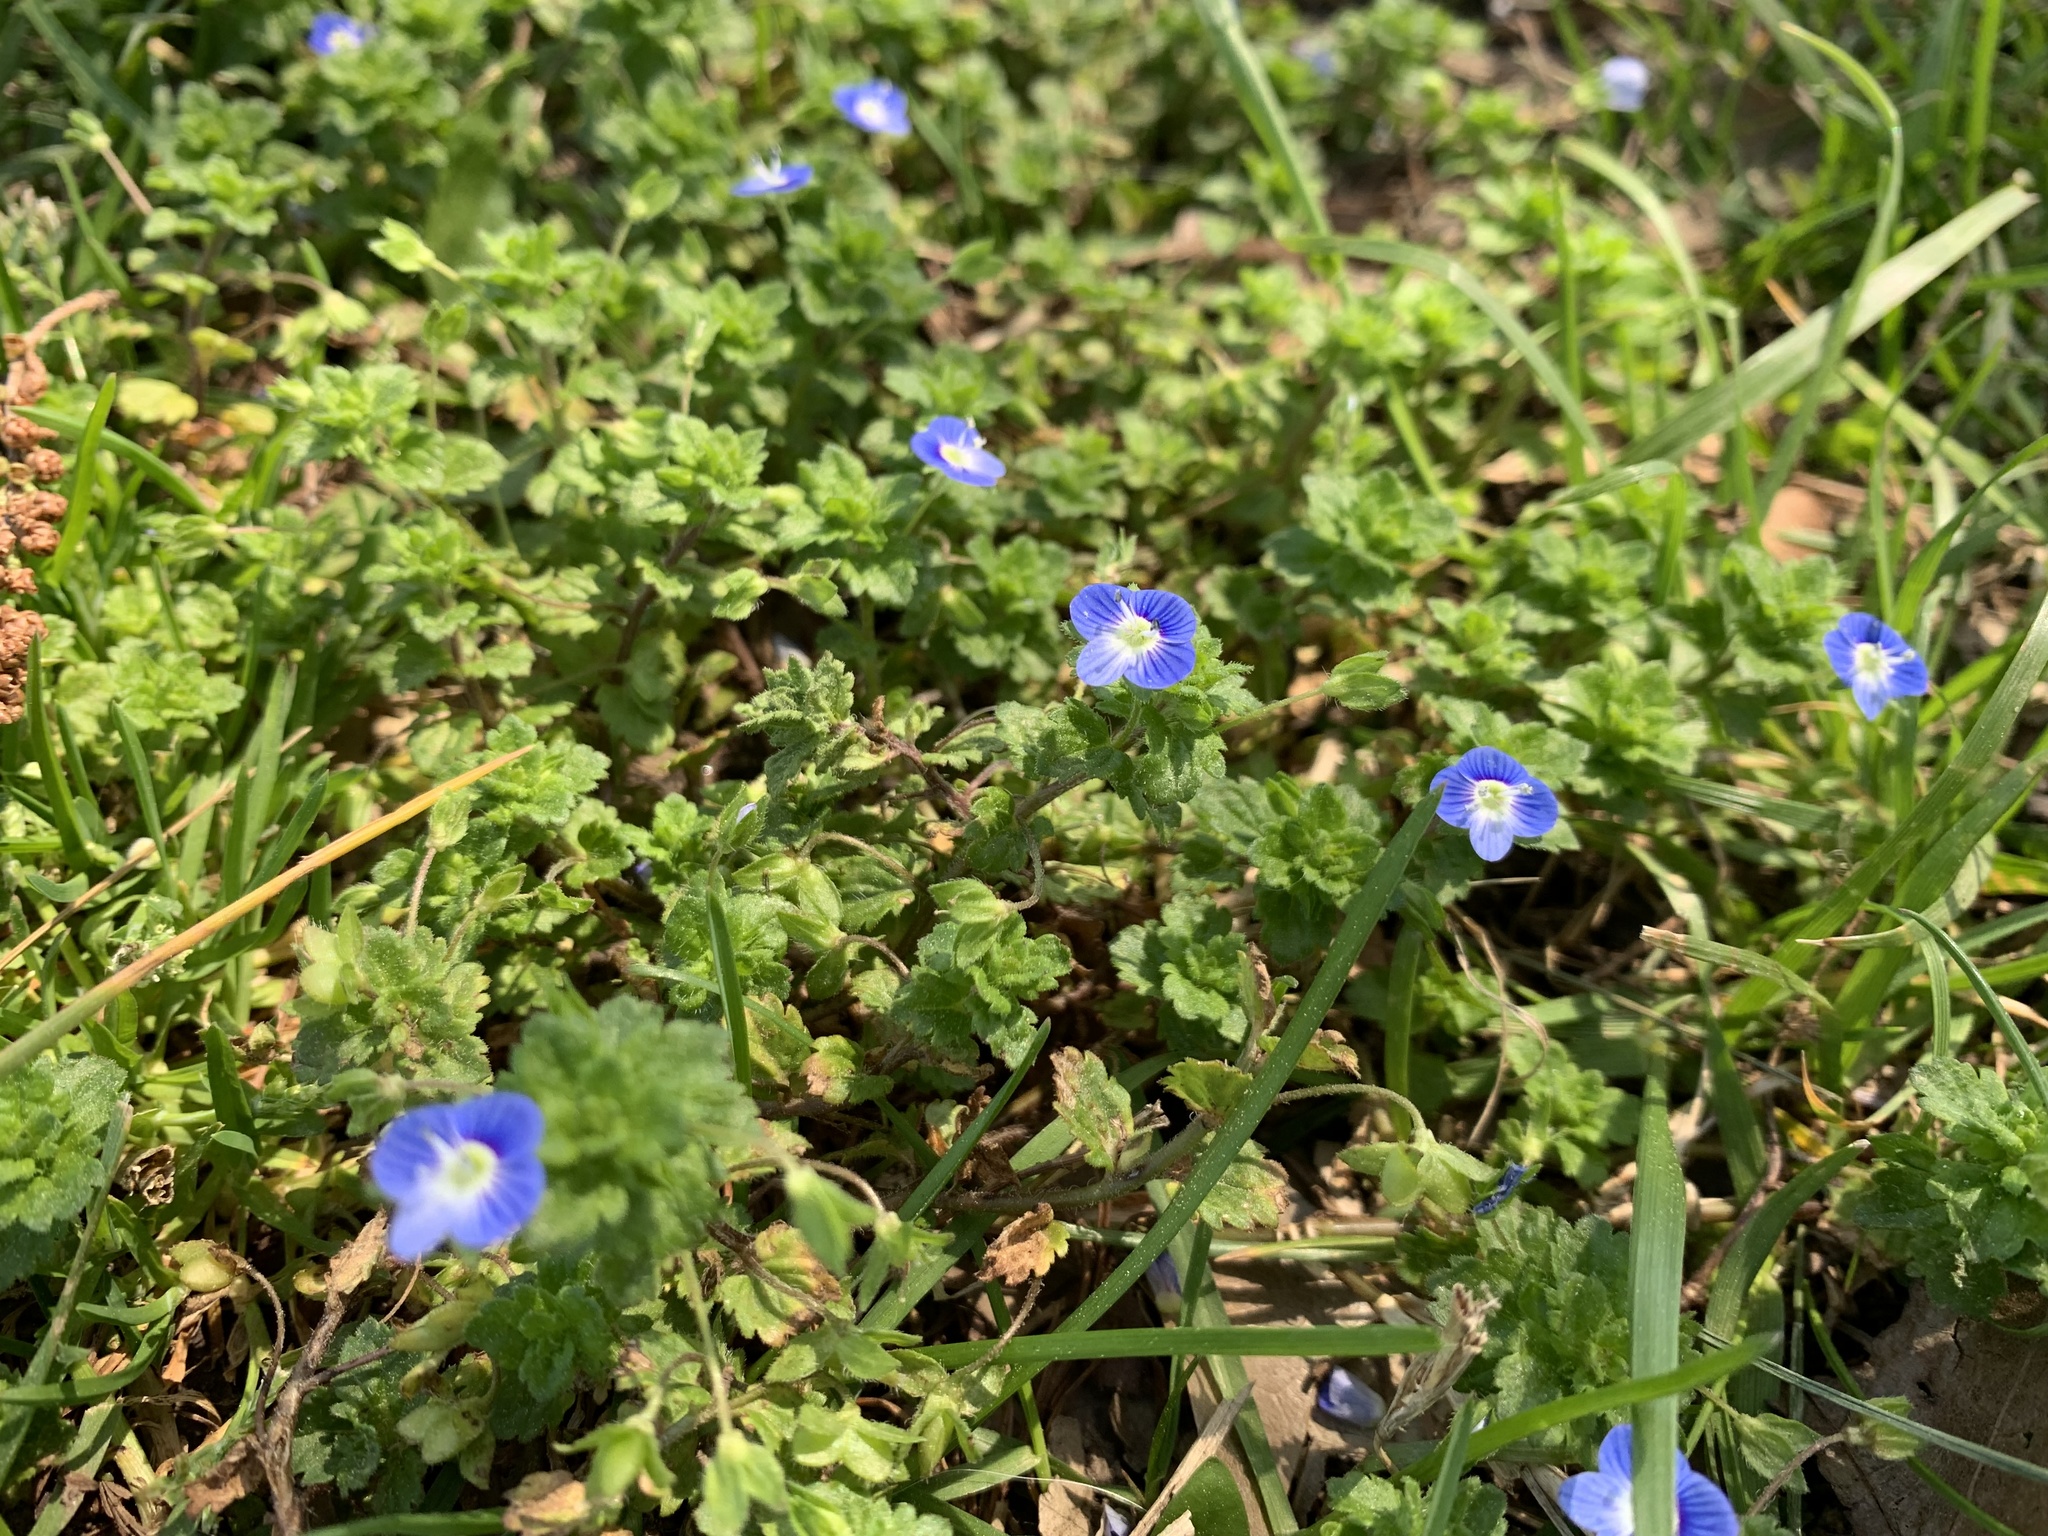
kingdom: Plantae
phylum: Tracheophyta
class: Magnoliopsida
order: Lamiales
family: Plantaginaceae
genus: Veronica
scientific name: Veronica persica
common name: Common field-speedwell
